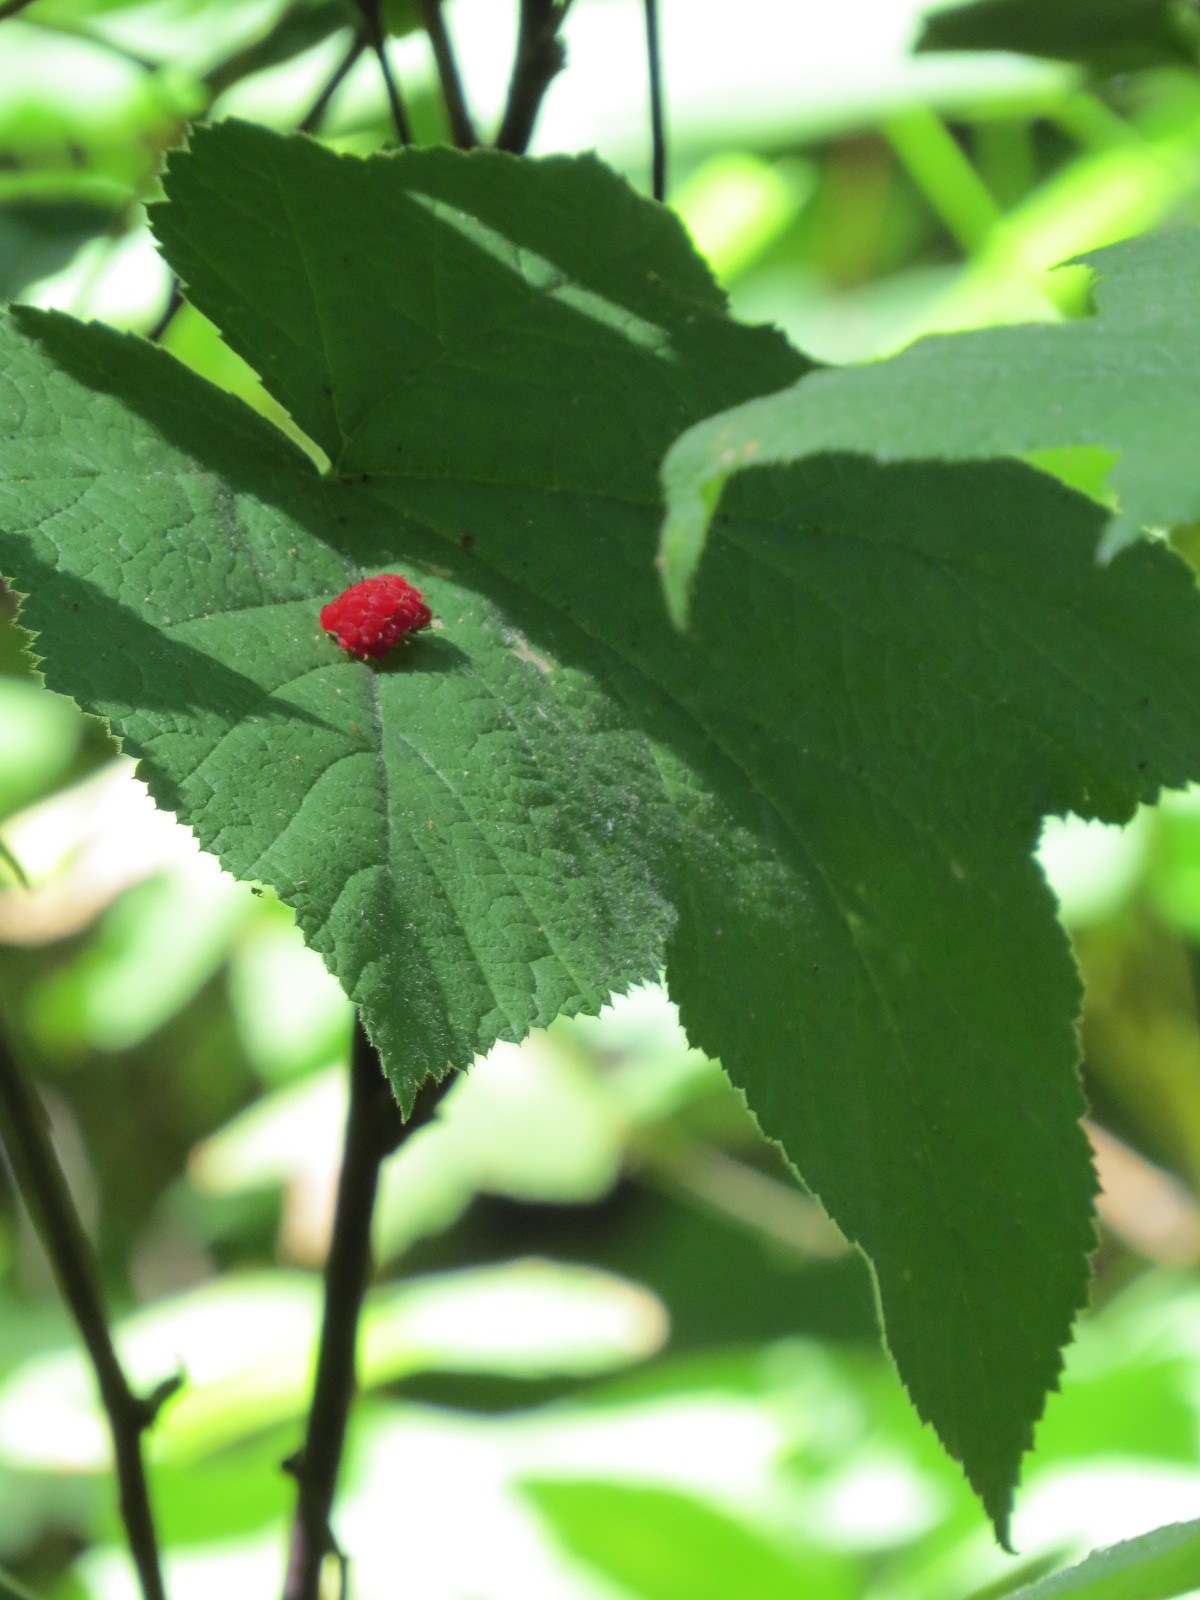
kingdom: Plantae
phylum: Tracheophyta
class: Magnoliopsida
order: Rosales
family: Rosaceae
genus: Rubus
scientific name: Rubus parviflorus
